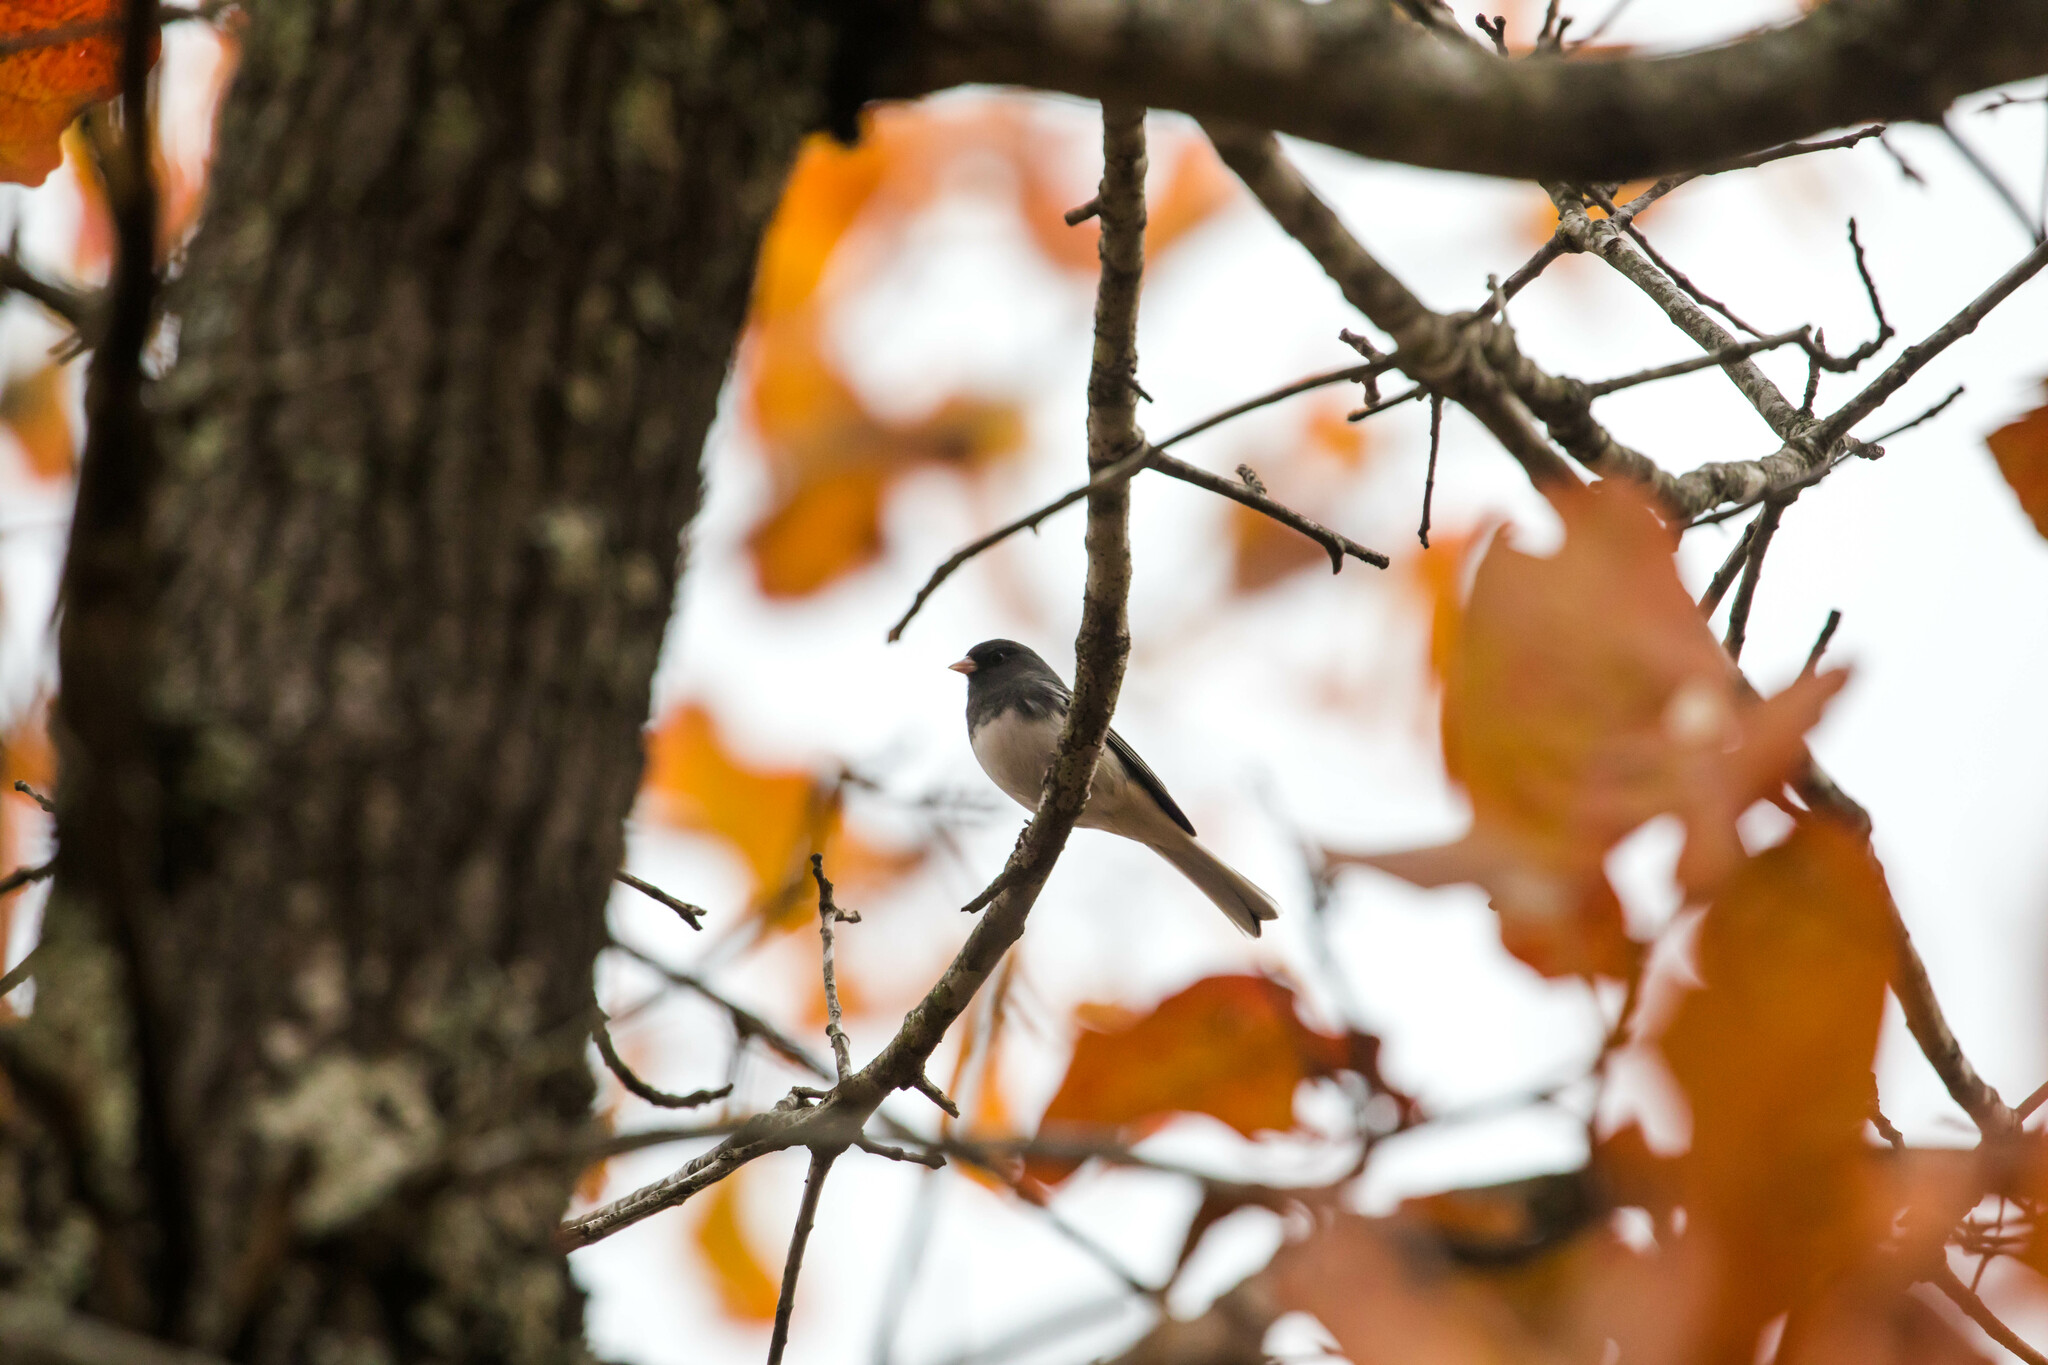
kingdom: Animalia
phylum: Chordata
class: Aves
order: Passeriformes
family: Passerellidae
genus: Junco
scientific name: Junco hyemalis
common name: Dark-eyed junco
